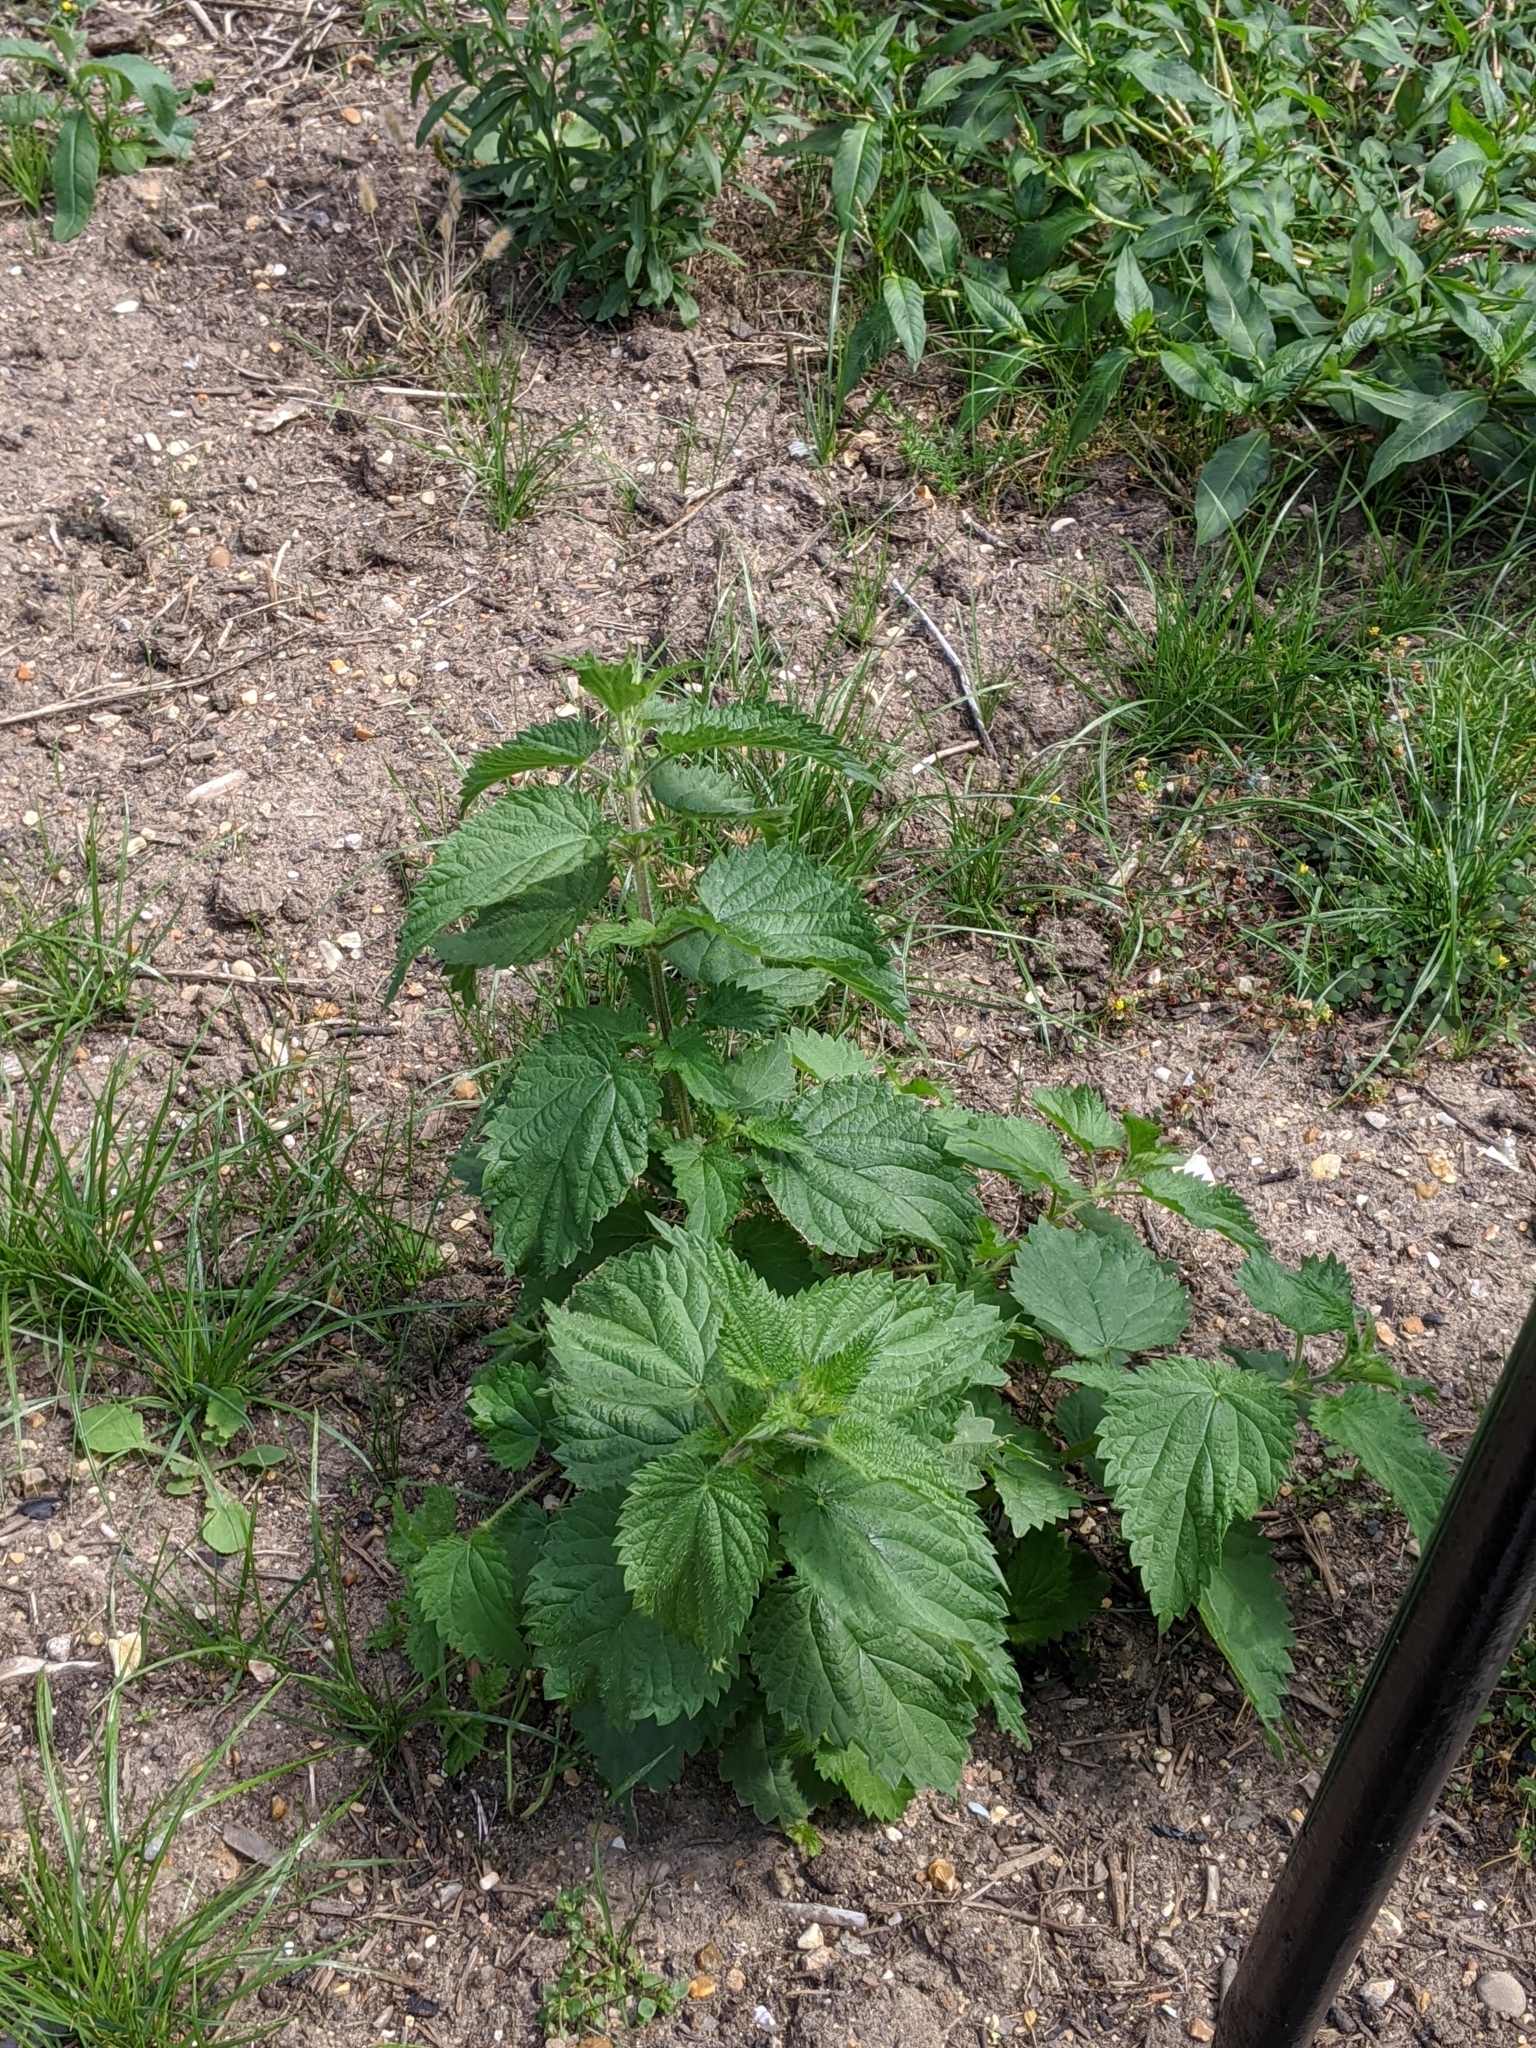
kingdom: Plantae
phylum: Tracheophyta
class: Magnoliopsida
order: Rosales
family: Urticaceae
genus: Urtica
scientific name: Urtica dioica
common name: Common nettle
